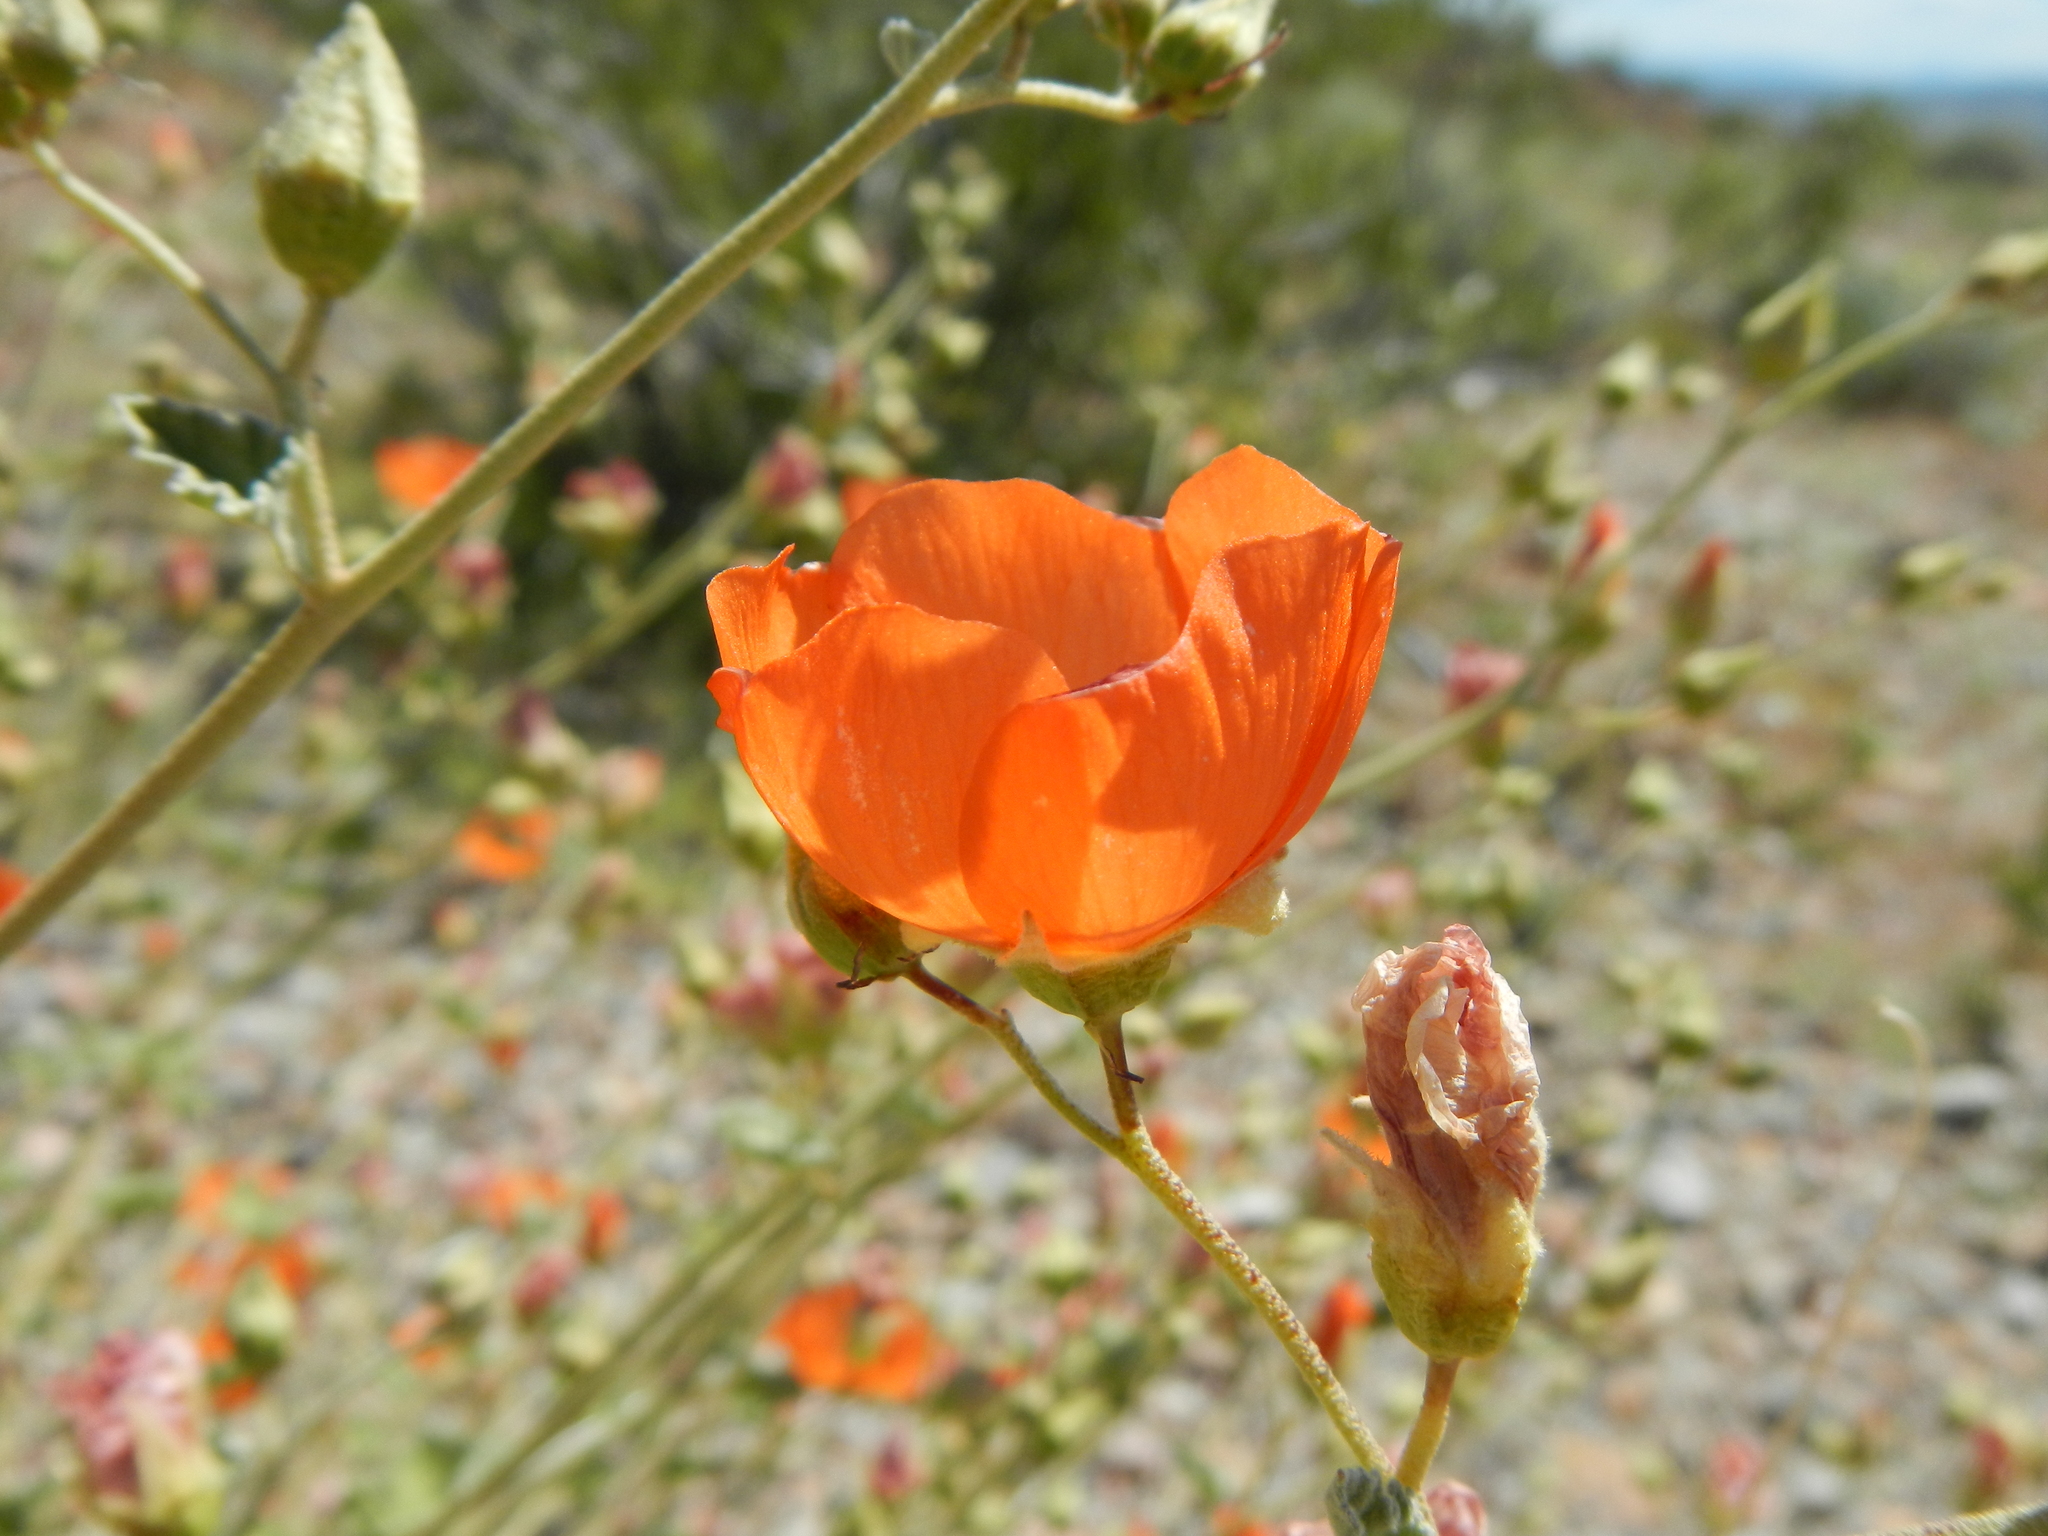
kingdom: Plantae
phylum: Tracheophyta
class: Magnoliopsida
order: Malvales
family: Malvaceae
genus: Sphaeralcea
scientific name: Sphaeralcea ambigua
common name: Apricot globe-mallow
